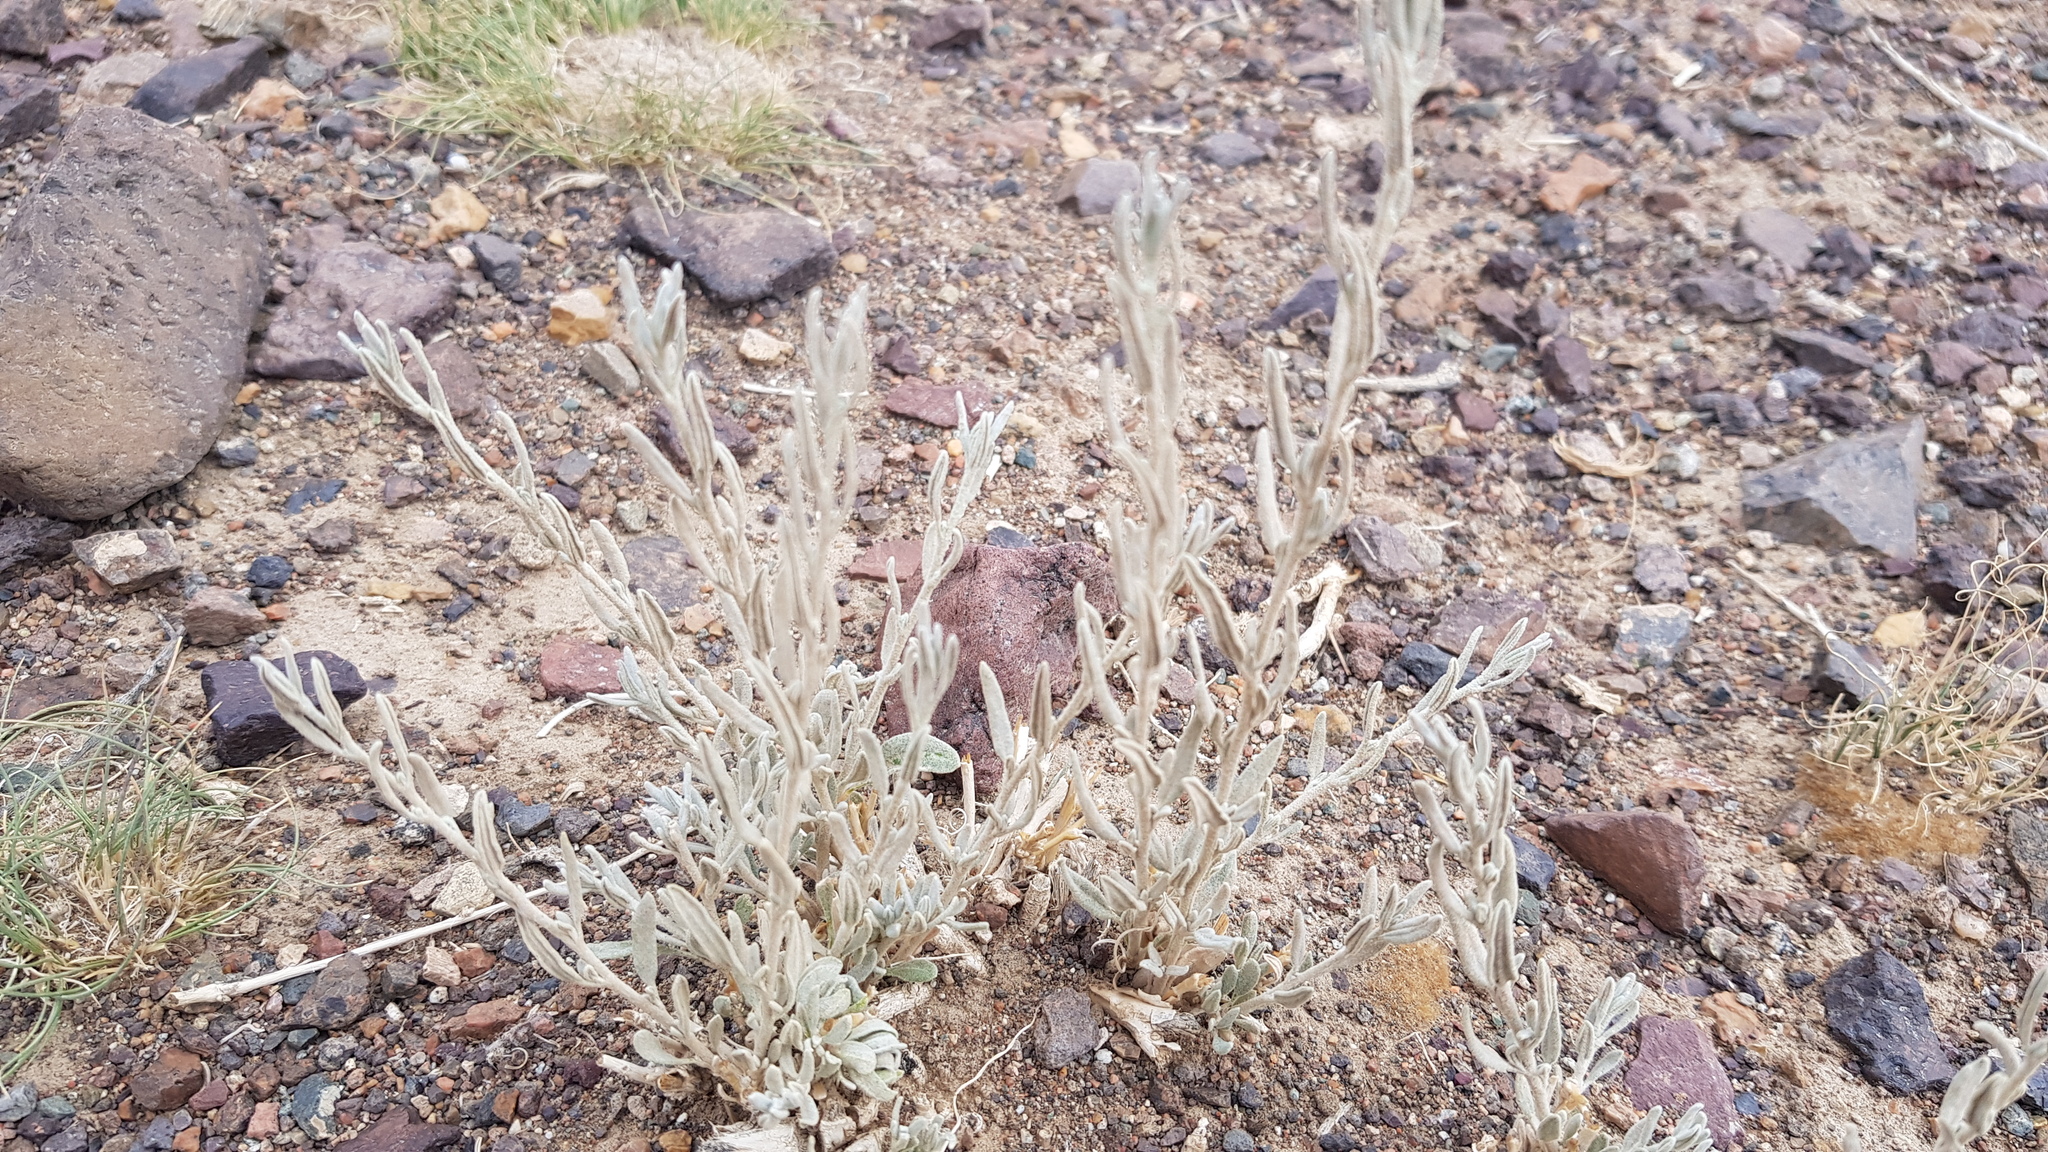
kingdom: Plantae
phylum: Tracheophyta
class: Magnoliopsida
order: Caryophyllales
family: Amaranthaceae
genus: Krascheninnikovia
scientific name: Krascheninnikovia ceratoides
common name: Pamirian winterfat
